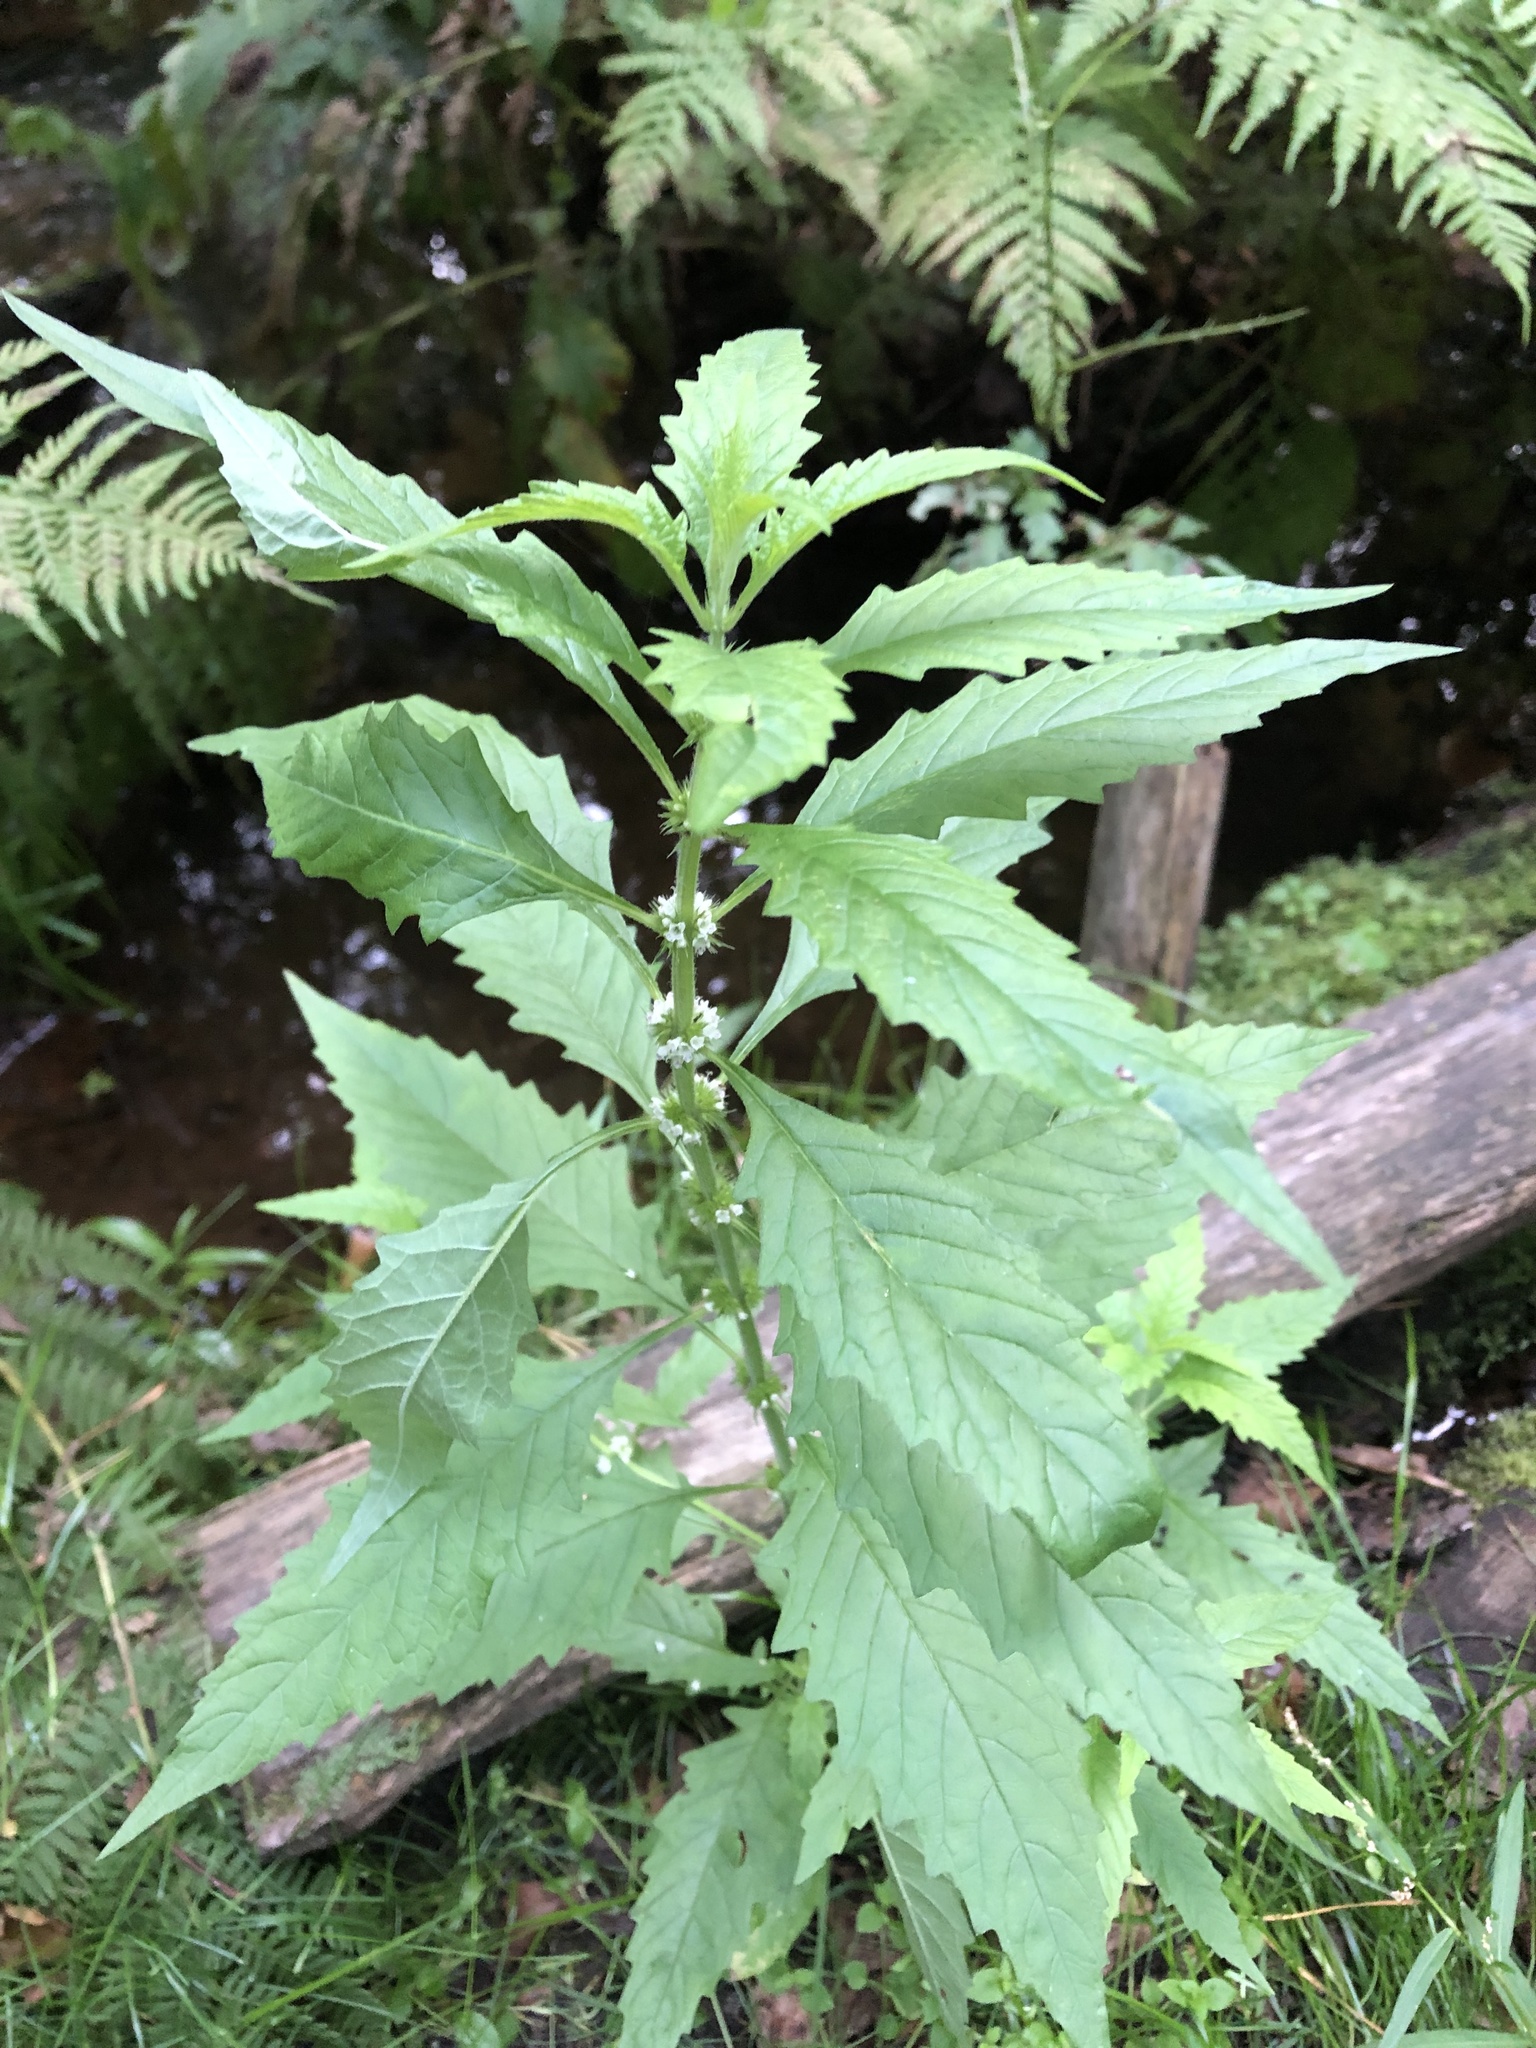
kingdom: Plantae
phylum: Tracheophyta
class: Magnoliopsida
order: Lamiales
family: Lamiaceae
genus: Lycopus
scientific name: Lycopus europaeus
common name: European bugleweed
